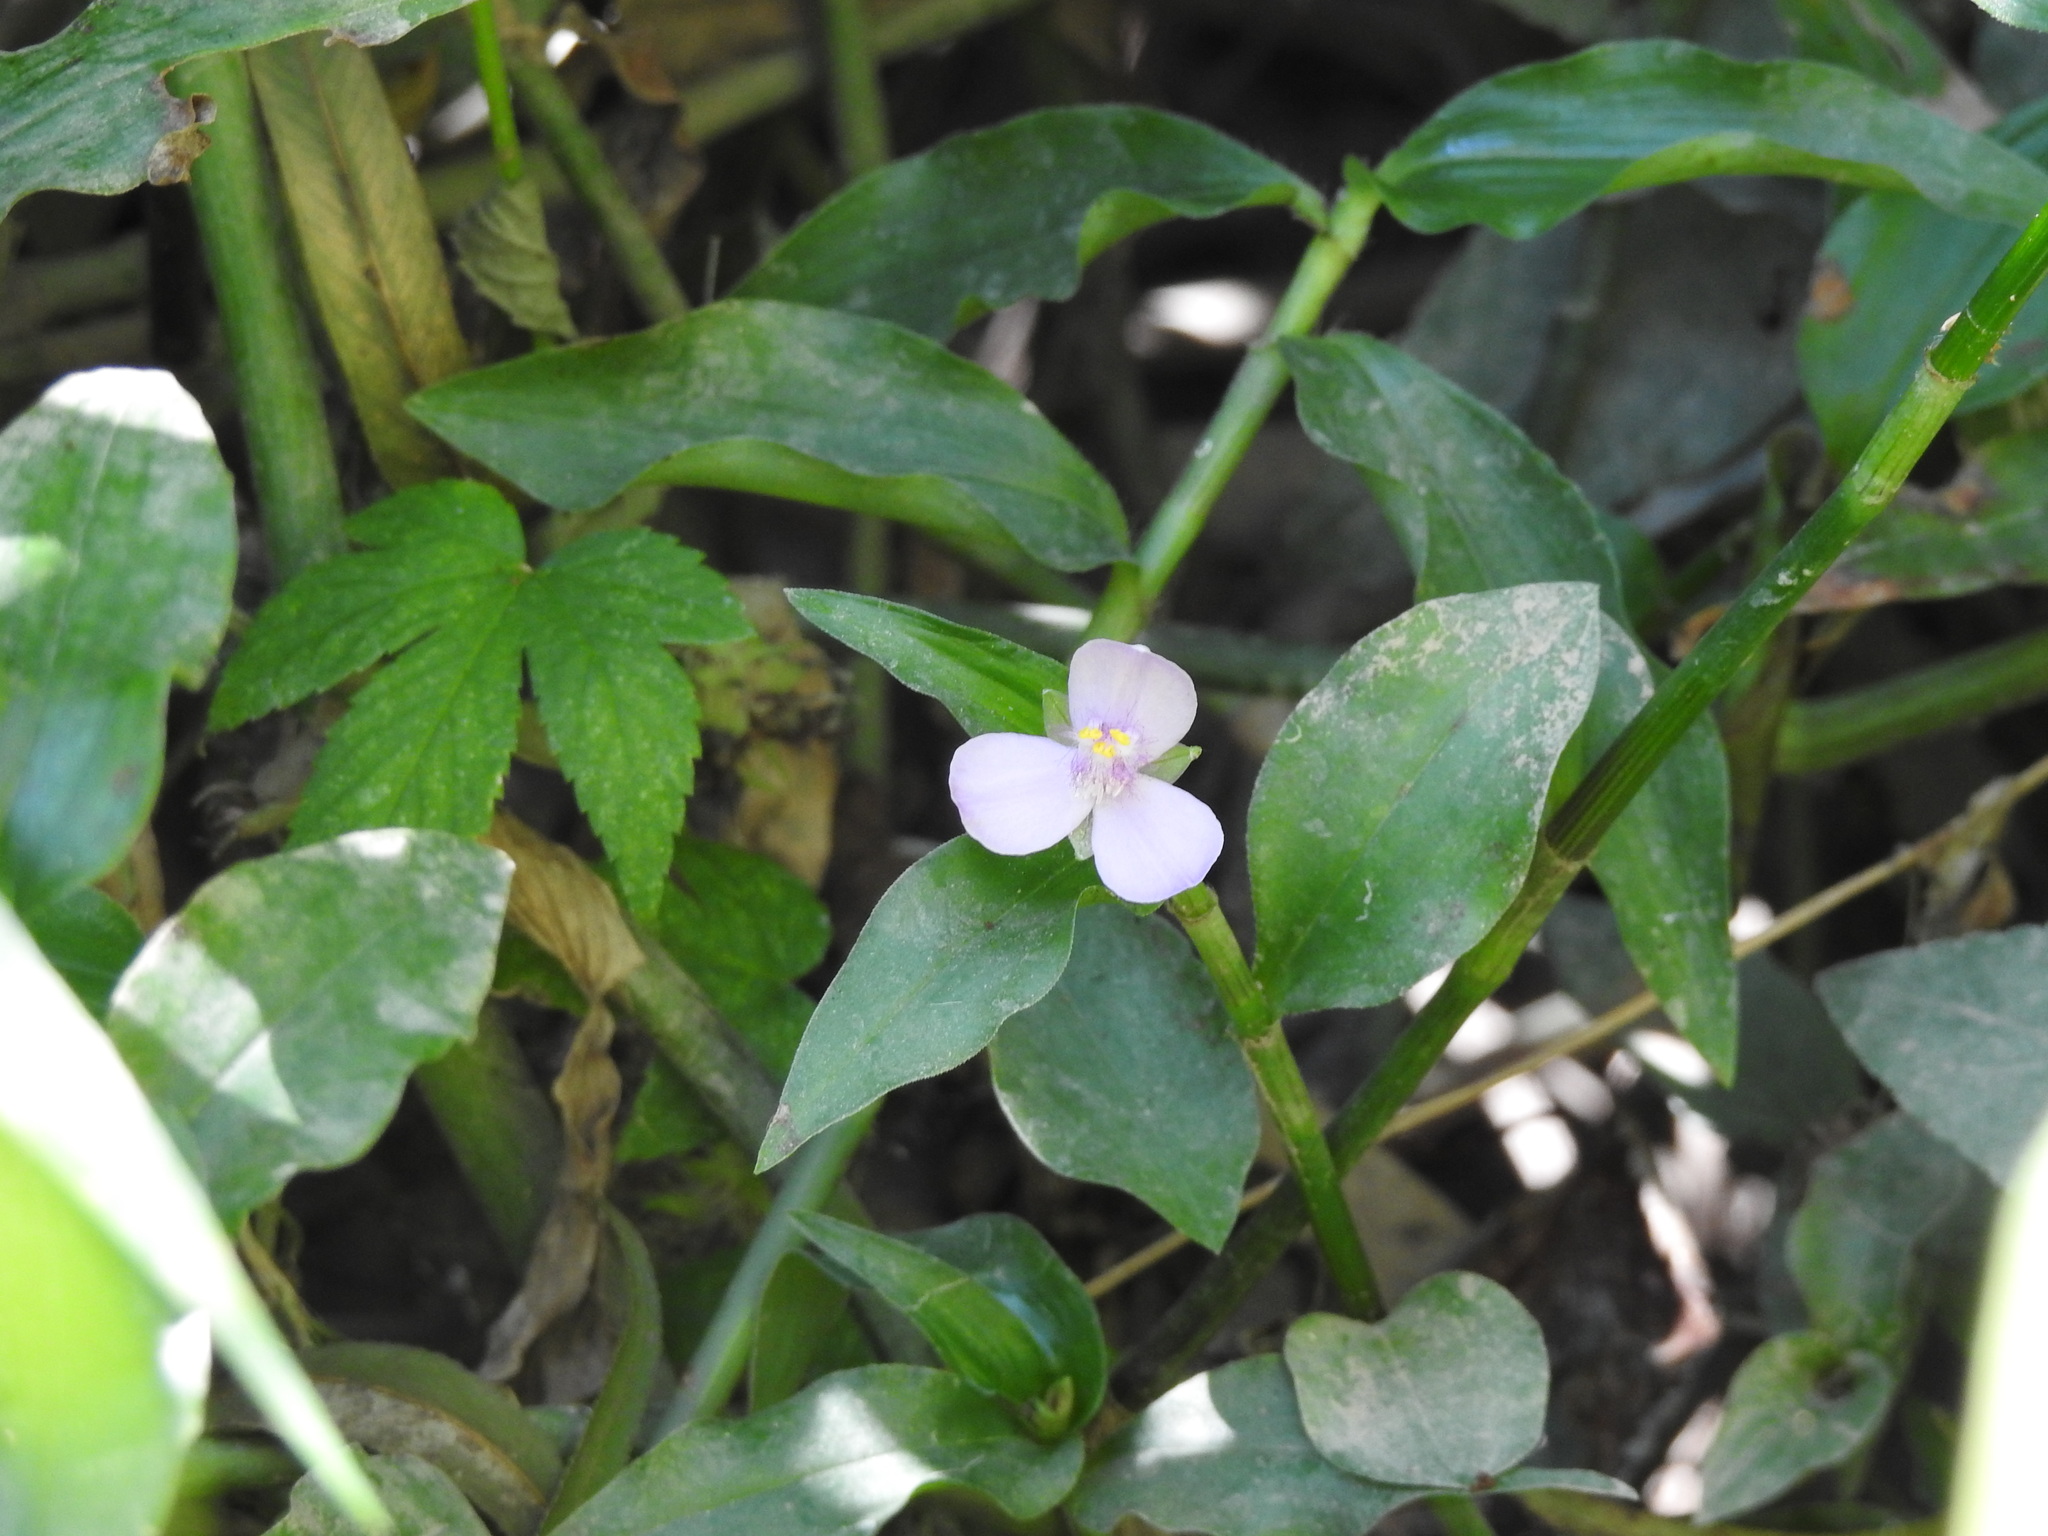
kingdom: Plantae
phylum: Tracheophyta
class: Liliopsida
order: Commelinales
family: Commelinaceae
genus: Callisia
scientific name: Callisia diuretica
